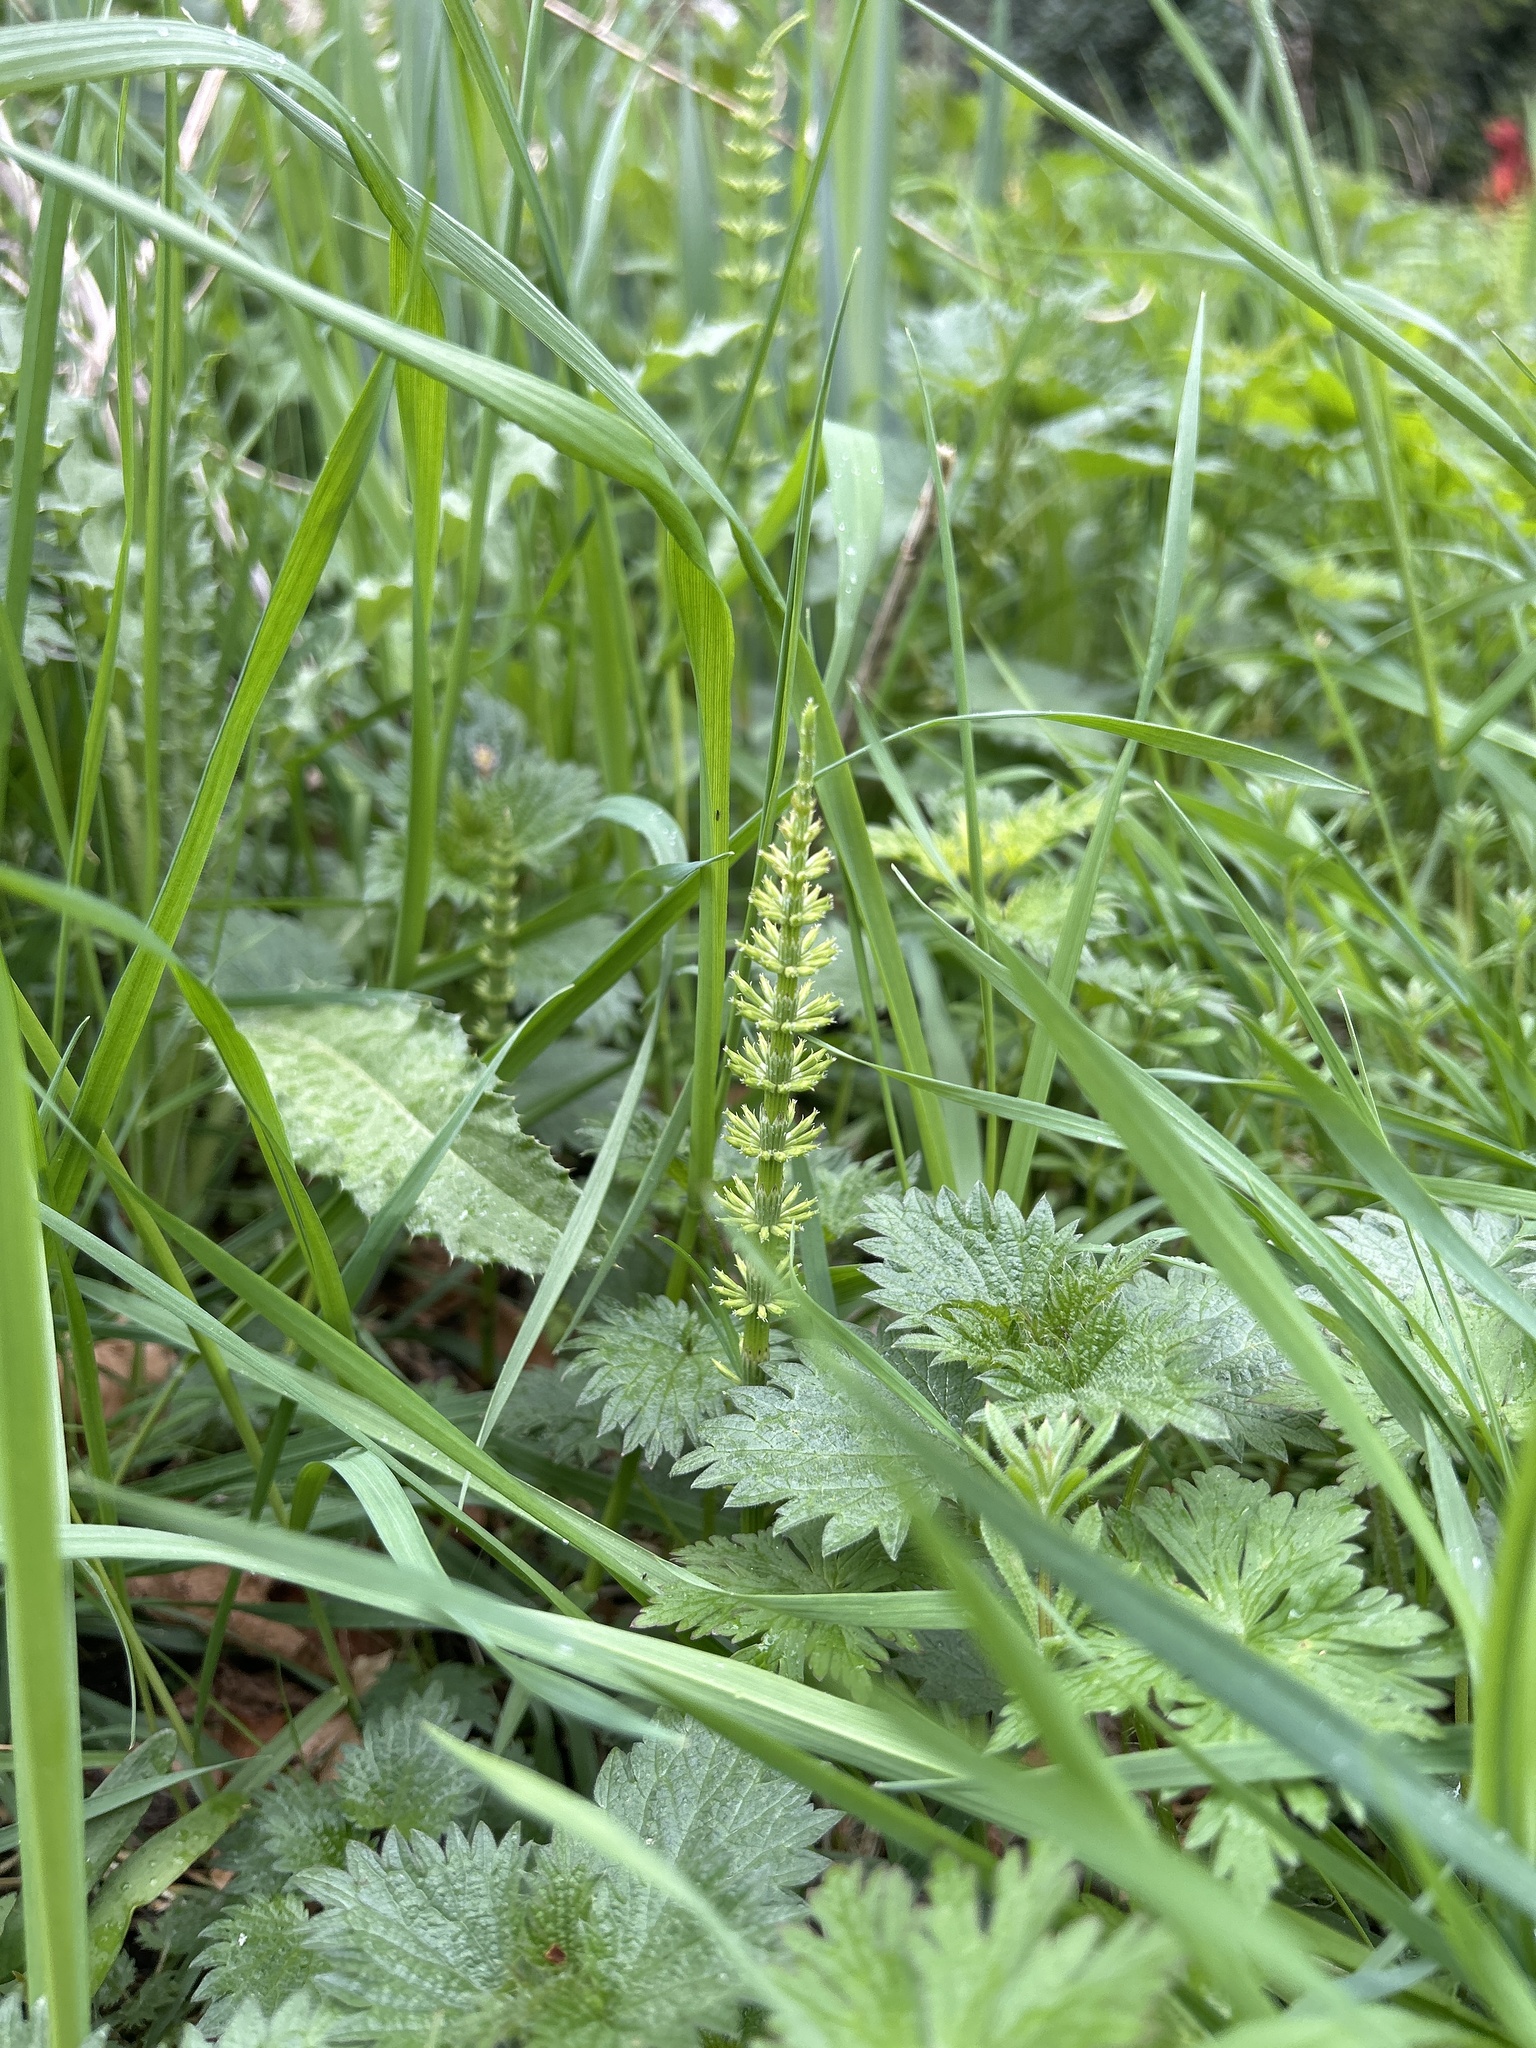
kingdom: Plantae
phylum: Tracheophyta
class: Polypodiopsida
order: Equisetales
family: Equisetaceae
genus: Equisetum
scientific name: Equisetum arvense
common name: Field horsetail
